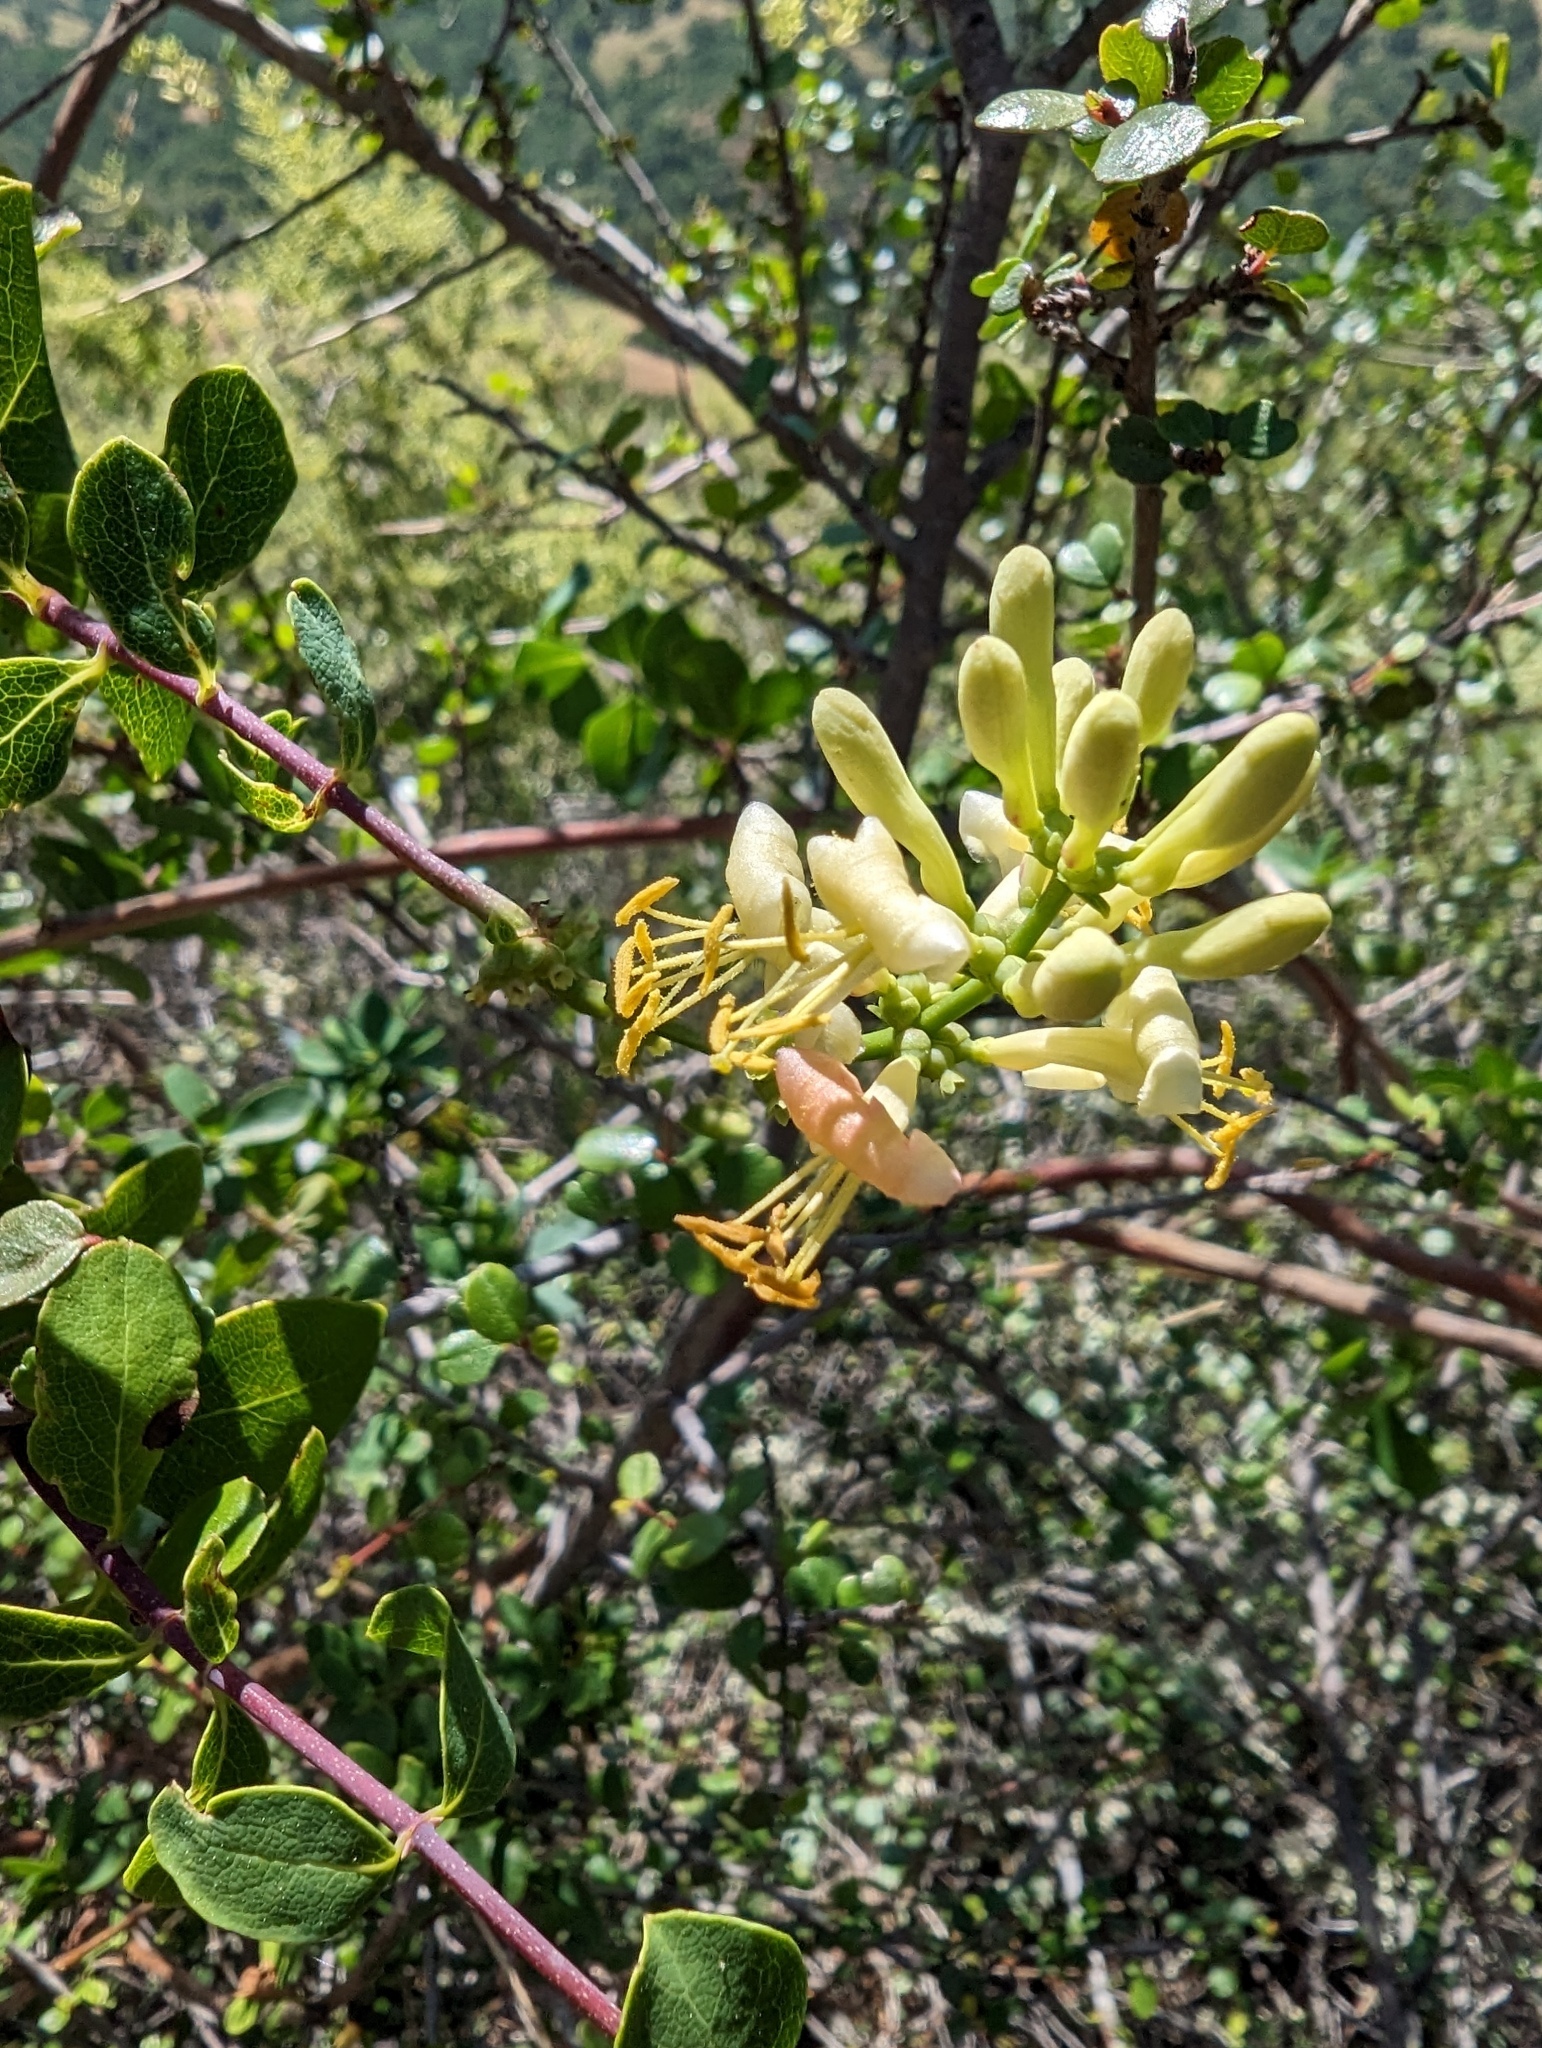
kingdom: Plantae
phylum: Tracheophyta
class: Magnoliopsida
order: Dipsacales
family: Caprifoliaceae
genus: Lonicera
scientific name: Lonicera subspicata
